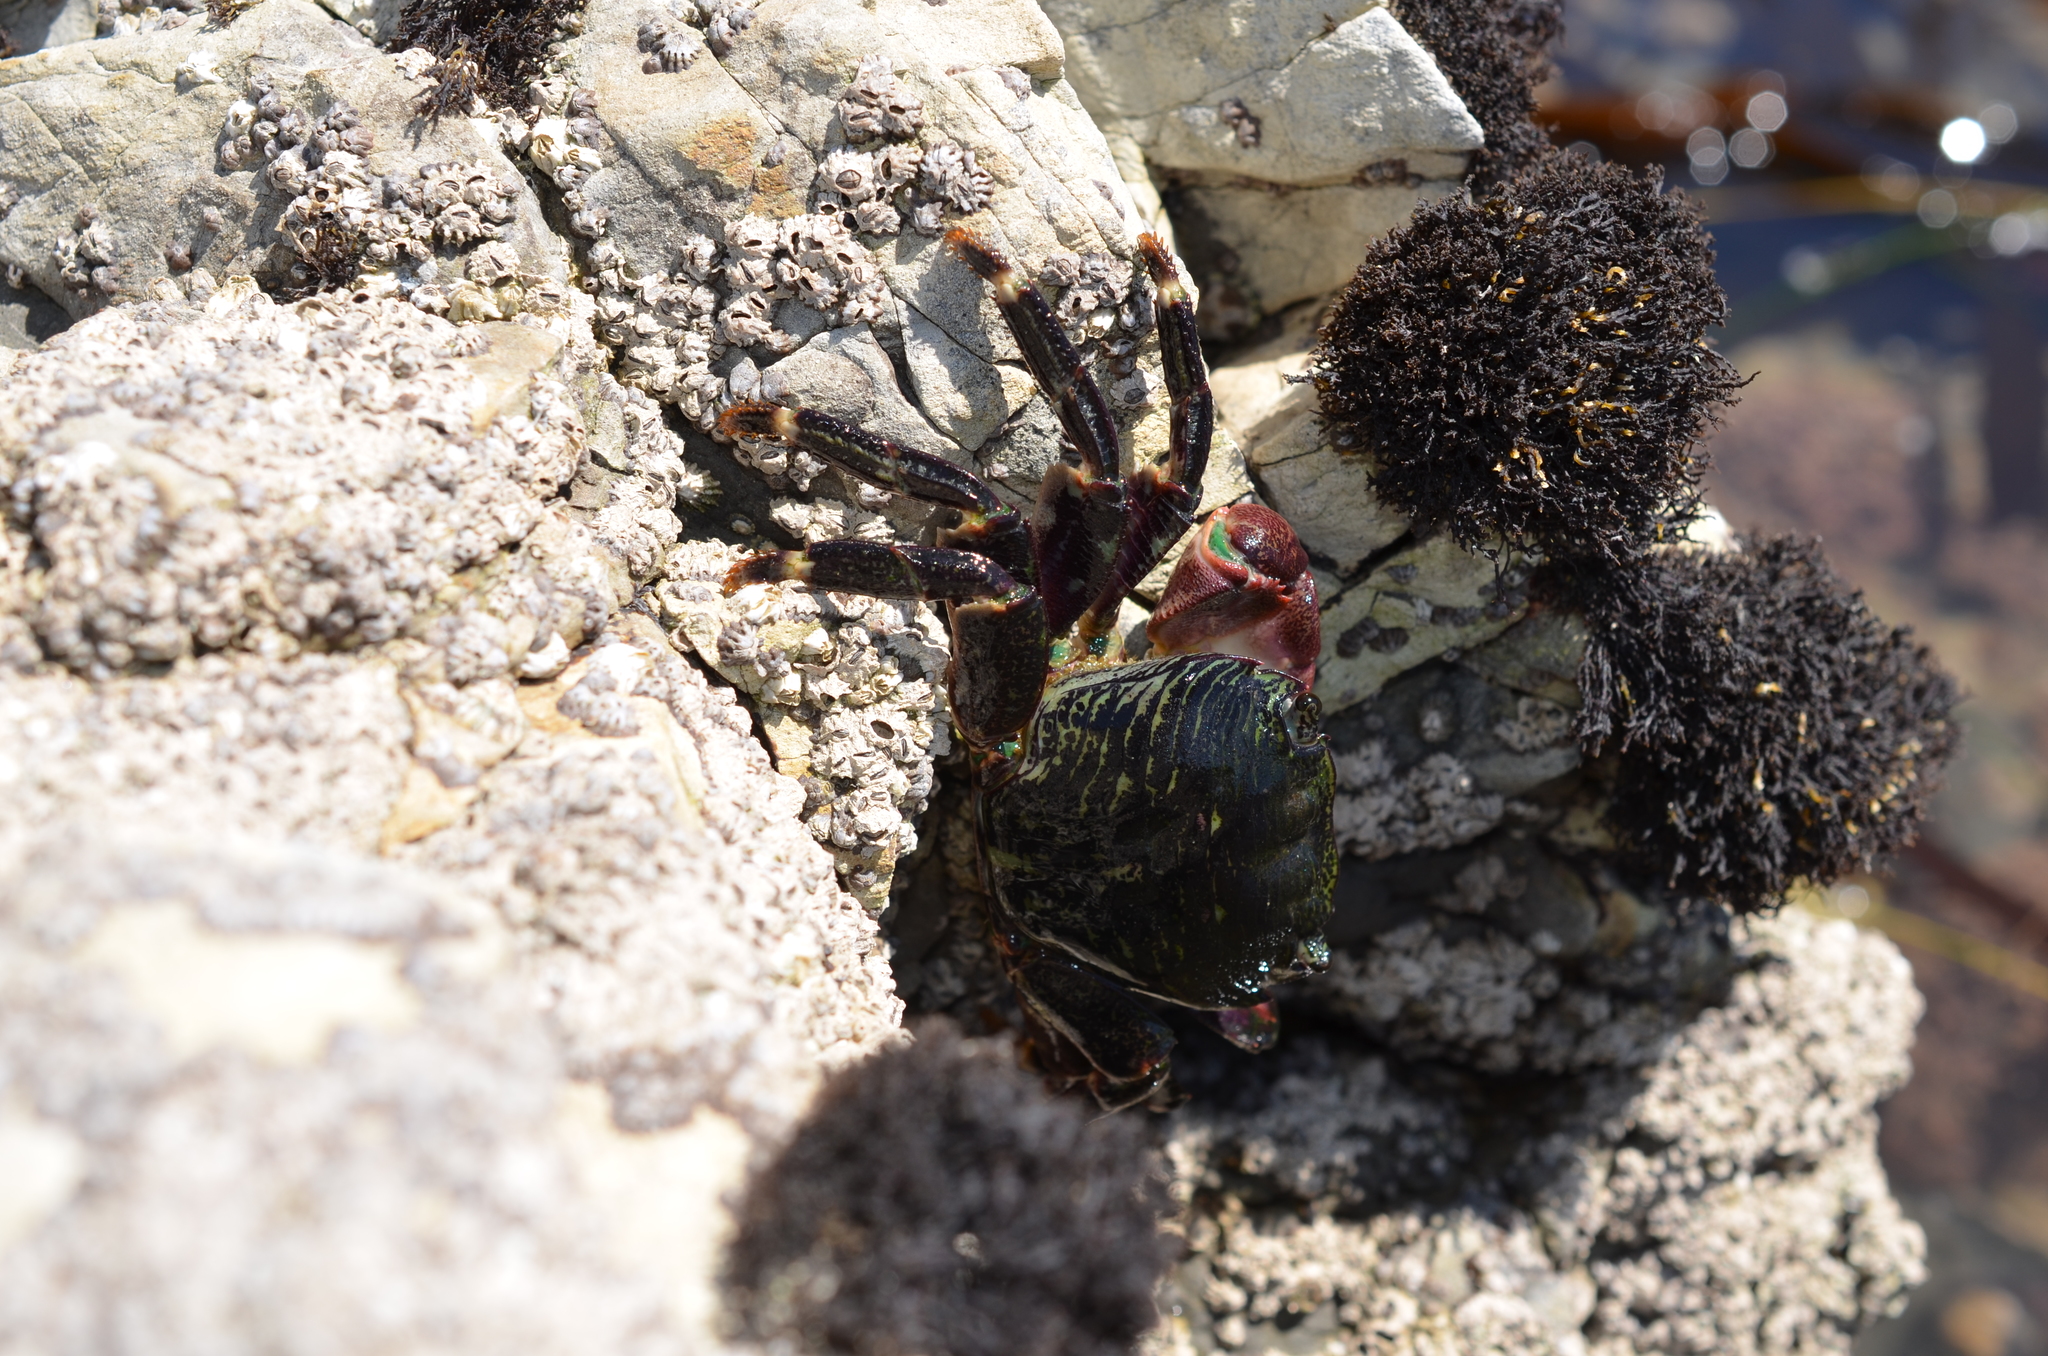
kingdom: Animalia
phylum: Arthropoda
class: Malacostraca
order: Decapoda
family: Grapsidae
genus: Pachygrapsus
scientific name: Pachygrapsus crassipes
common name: Striped shore crab
